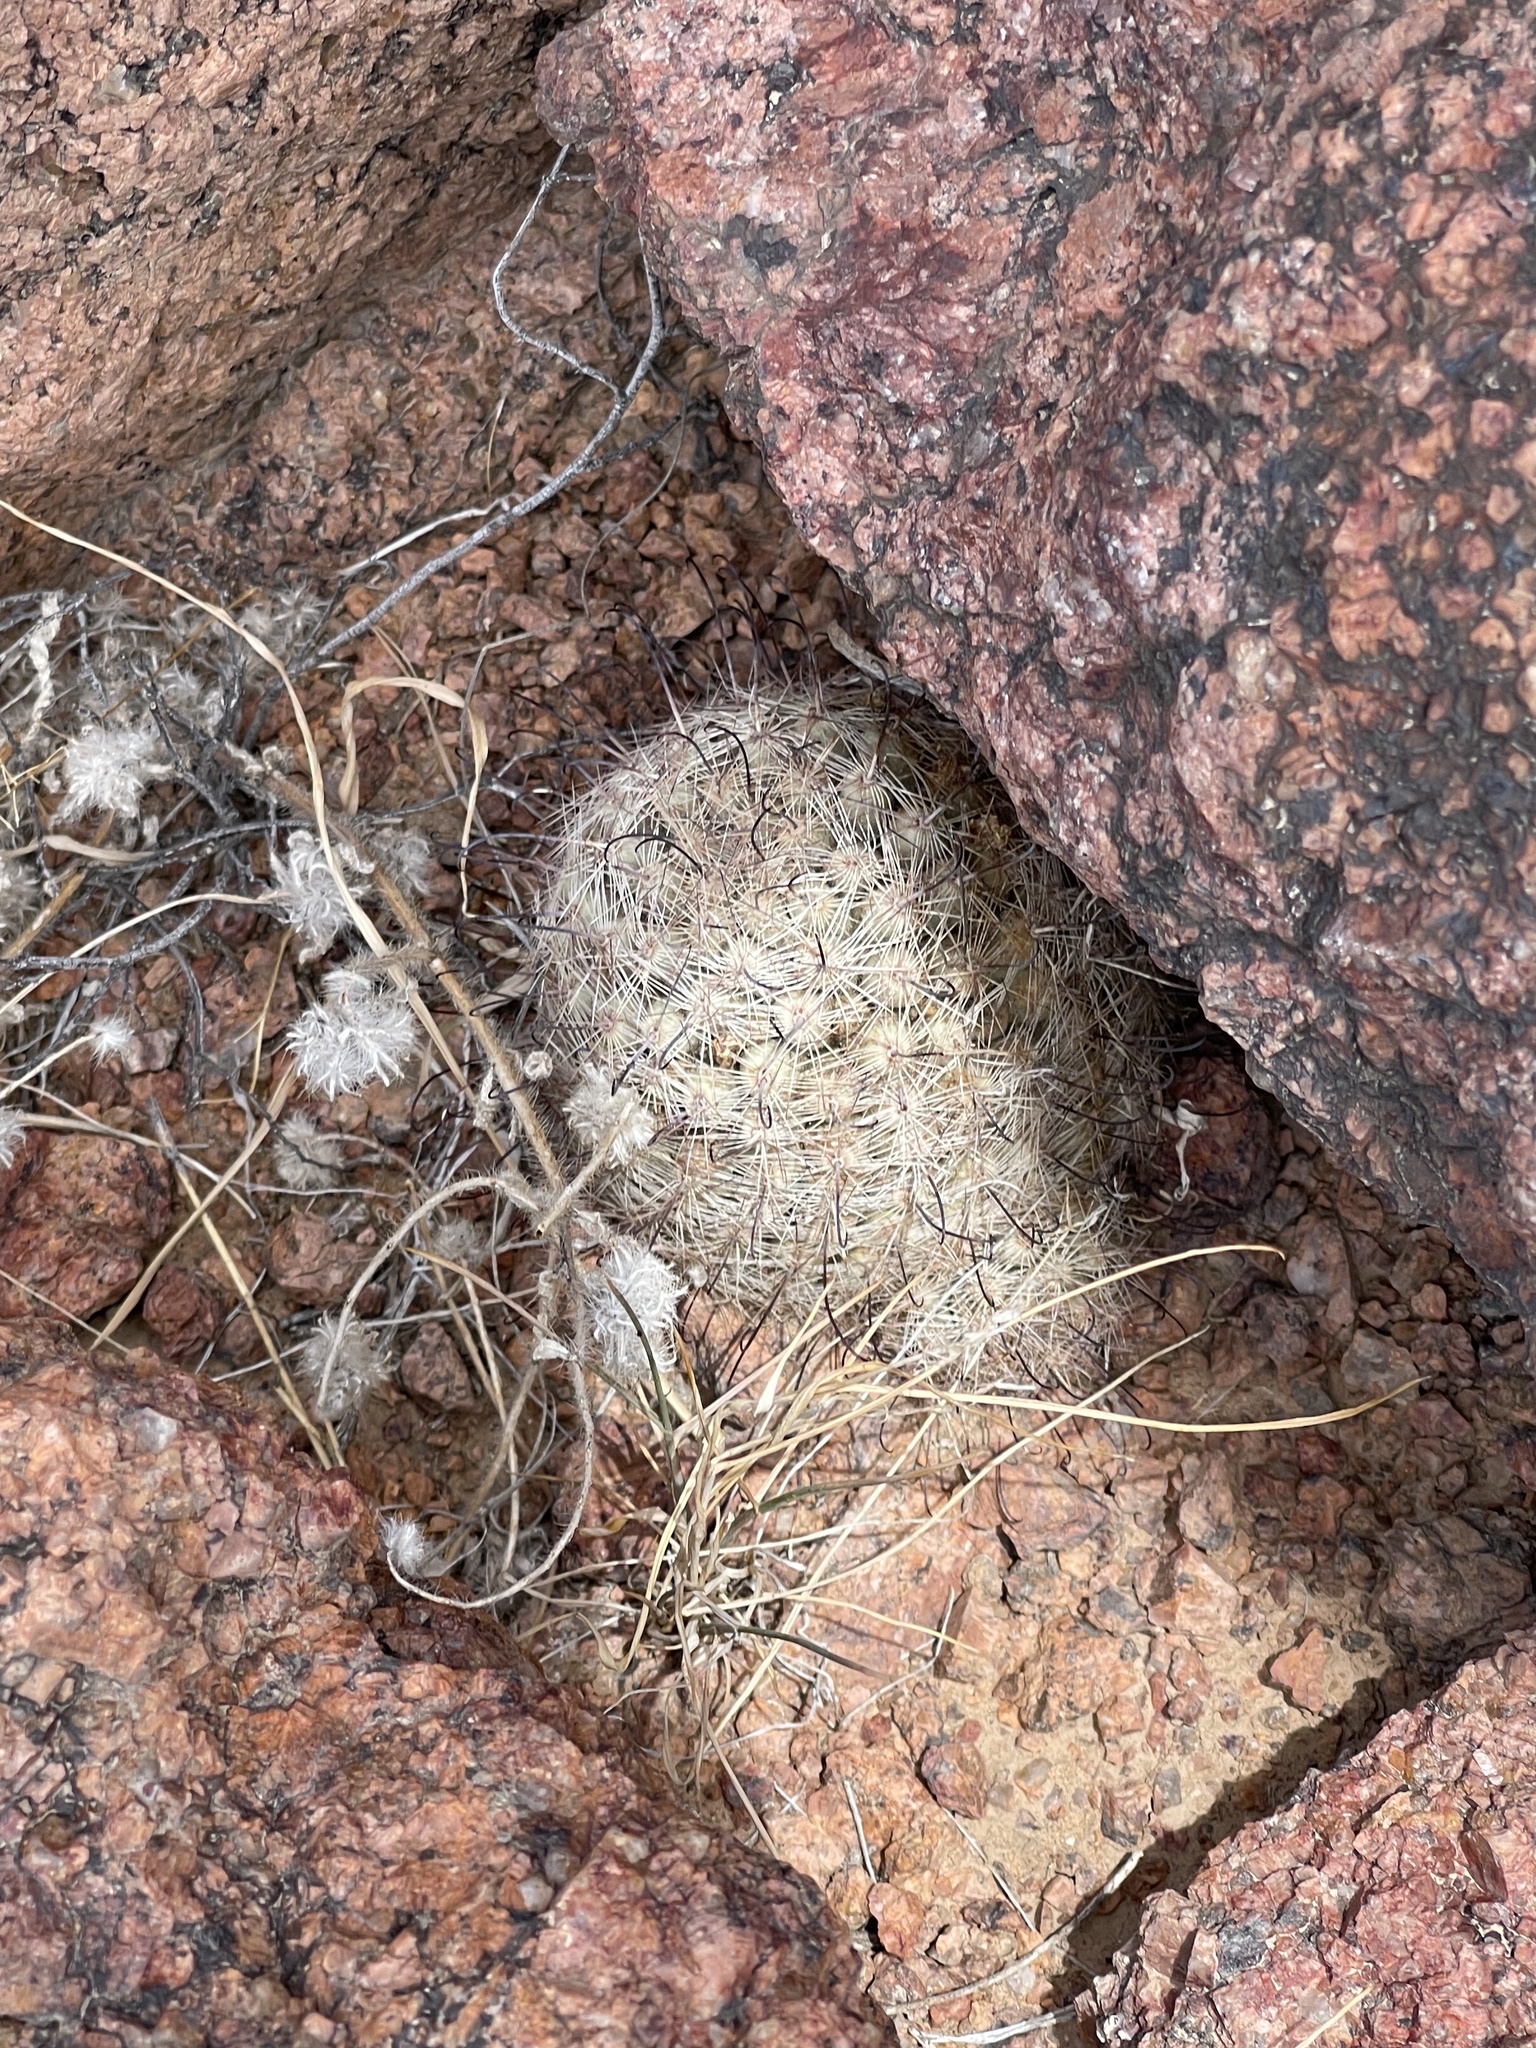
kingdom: Plantae
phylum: Tracheophyta
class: Magnoliopsida
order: Caryophyllales
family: Cactaceae
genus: Cochemiea
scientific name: Cochemiea grahamii
